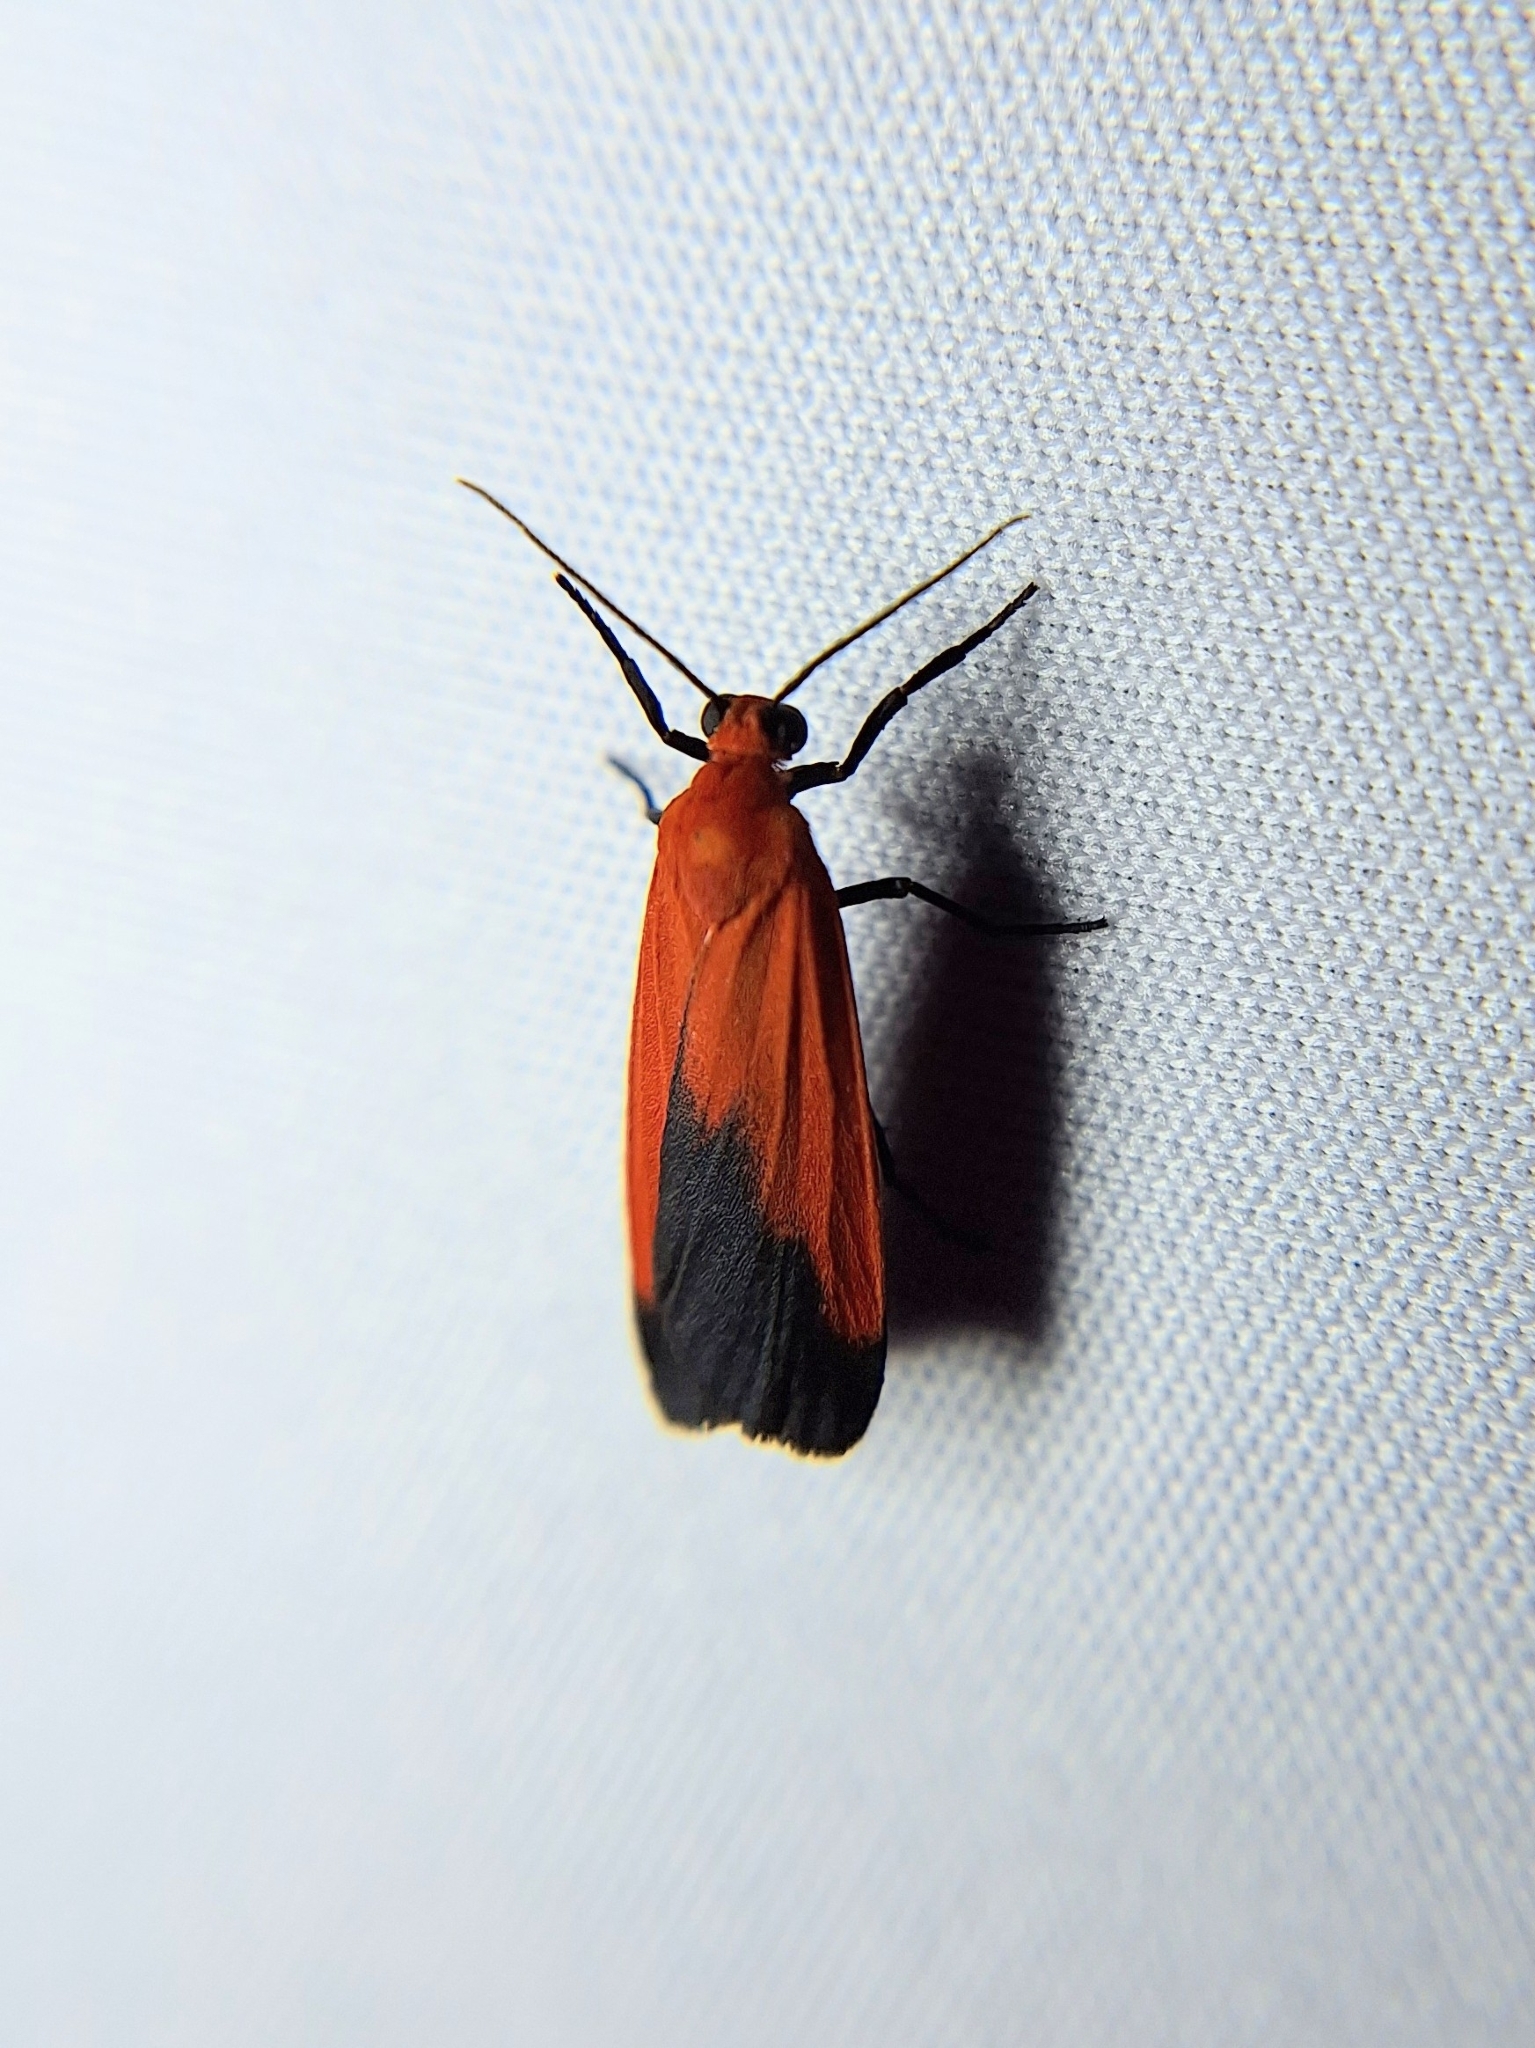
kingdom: Animalia
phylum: Arthropoda
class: Insecta
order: Lepidoptera
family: Erebidae
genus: Ptychoglene
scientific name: Ptychoglene coccinea
